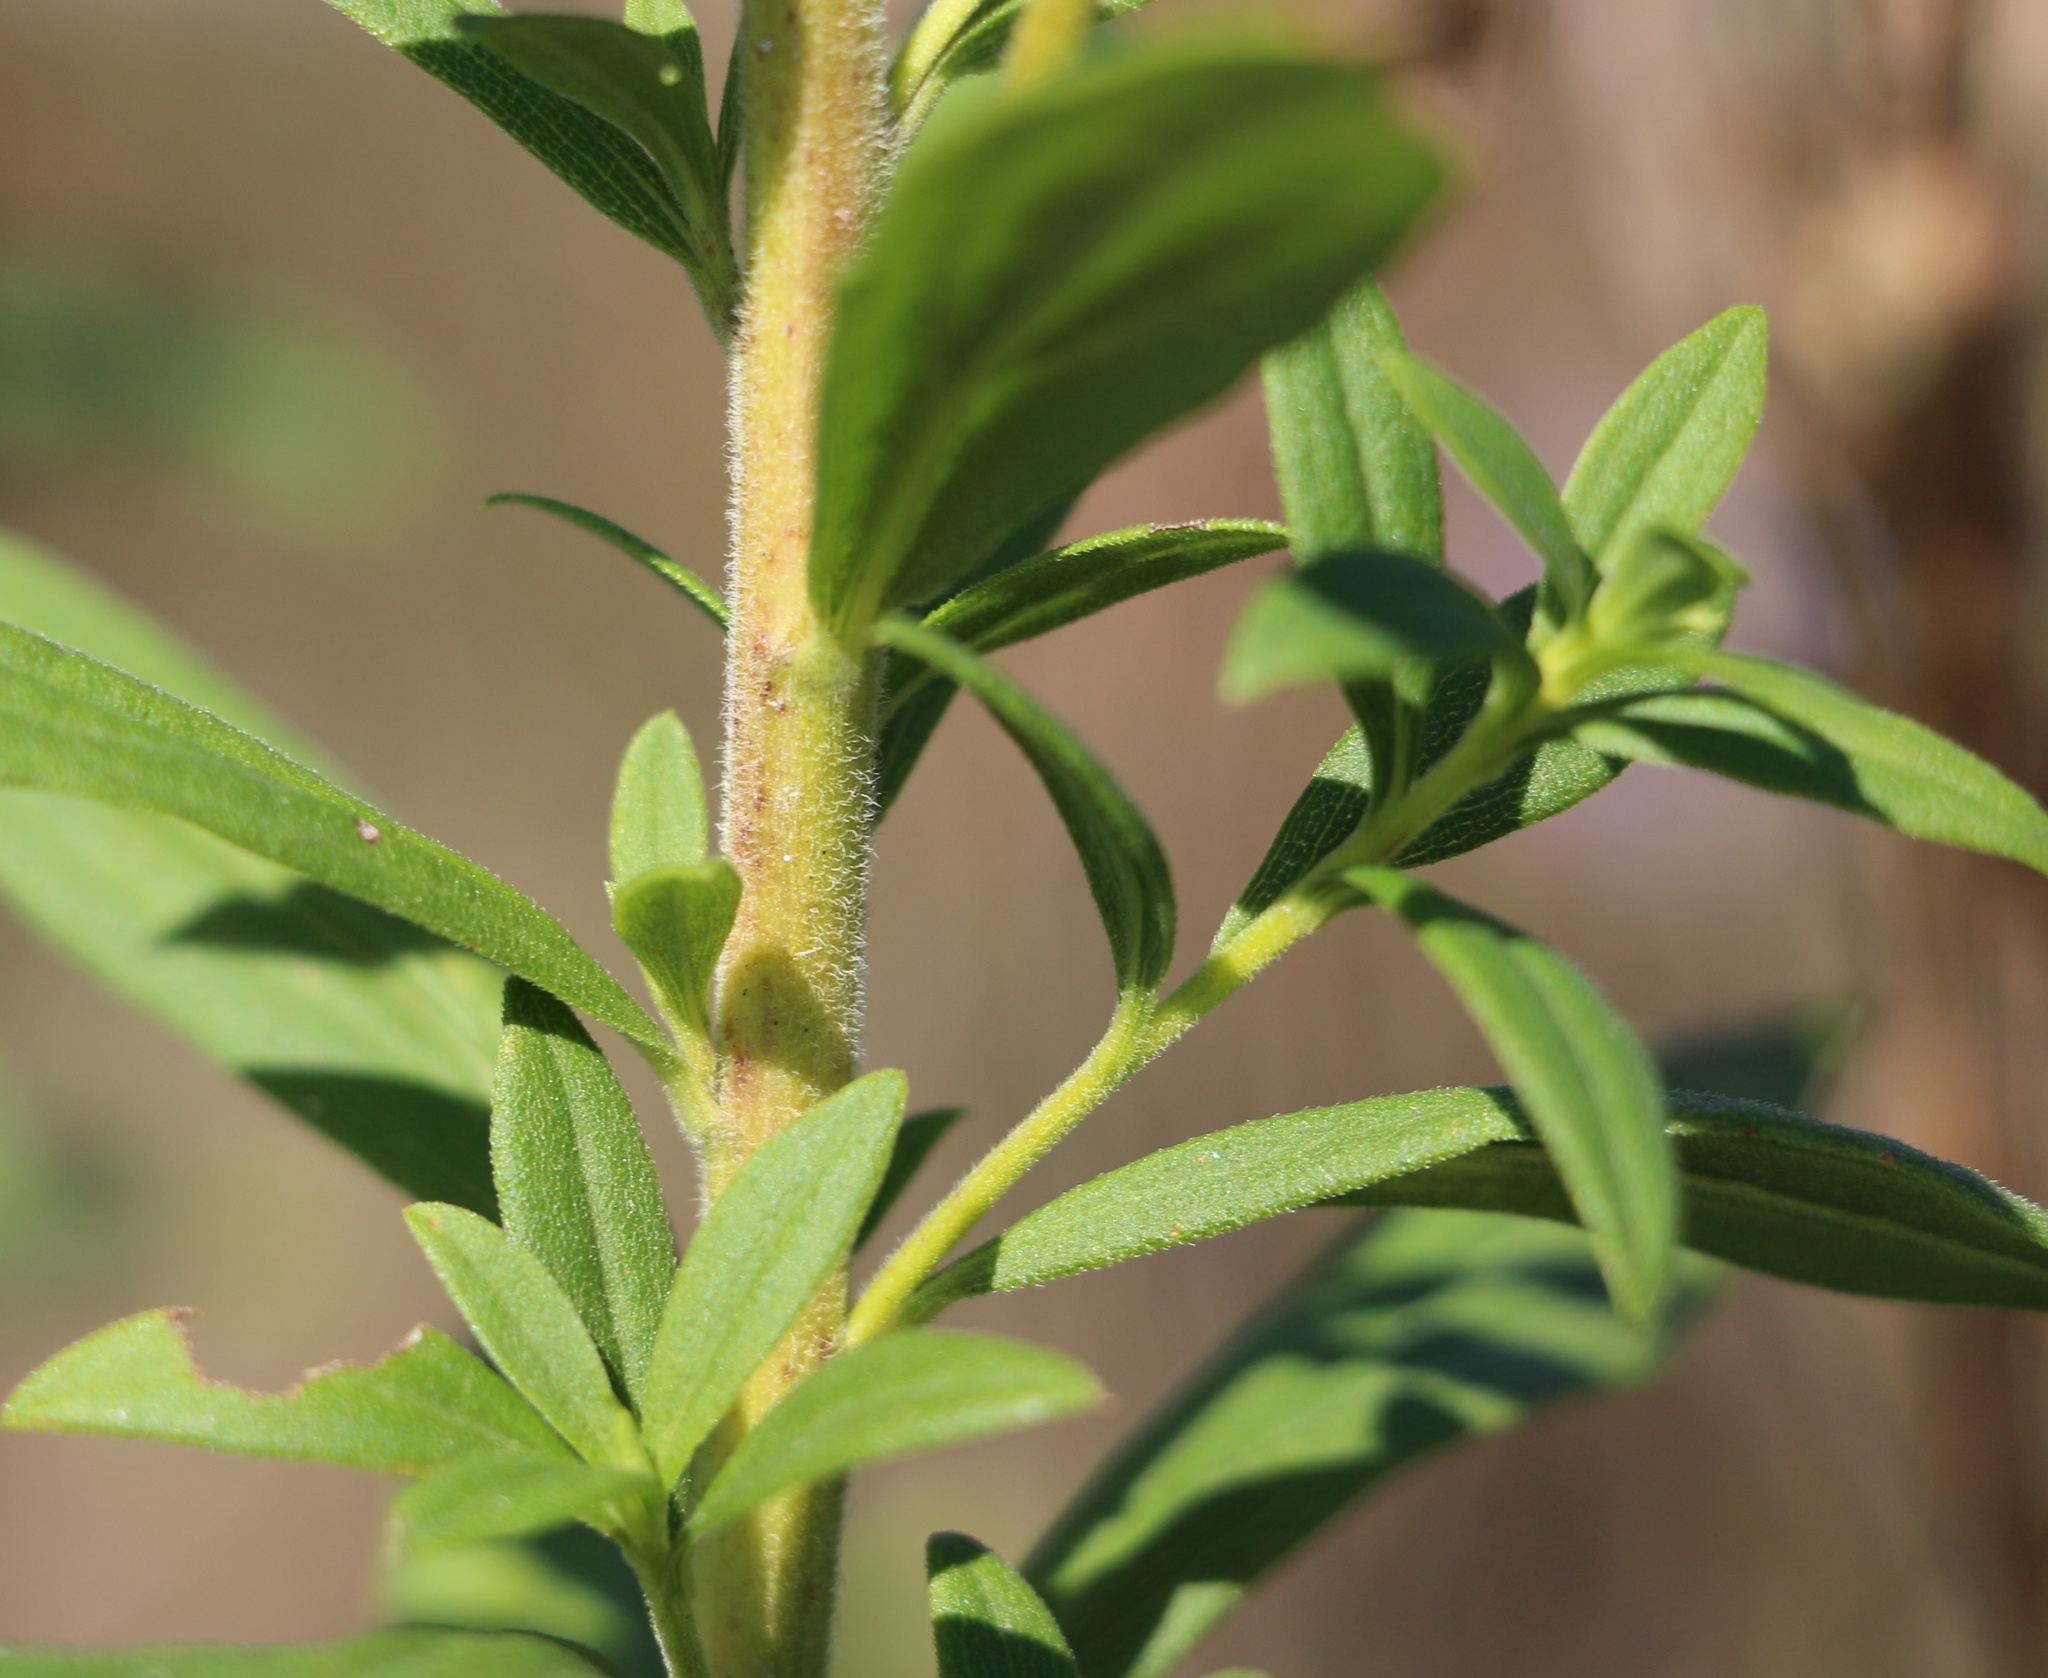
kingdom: Plantae
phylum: Tracheophyta
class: Magnoliopsida
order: Asterales
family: Asteraceae
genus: Solidago
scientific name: Solidago canadensis
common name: Canada goldenrod
